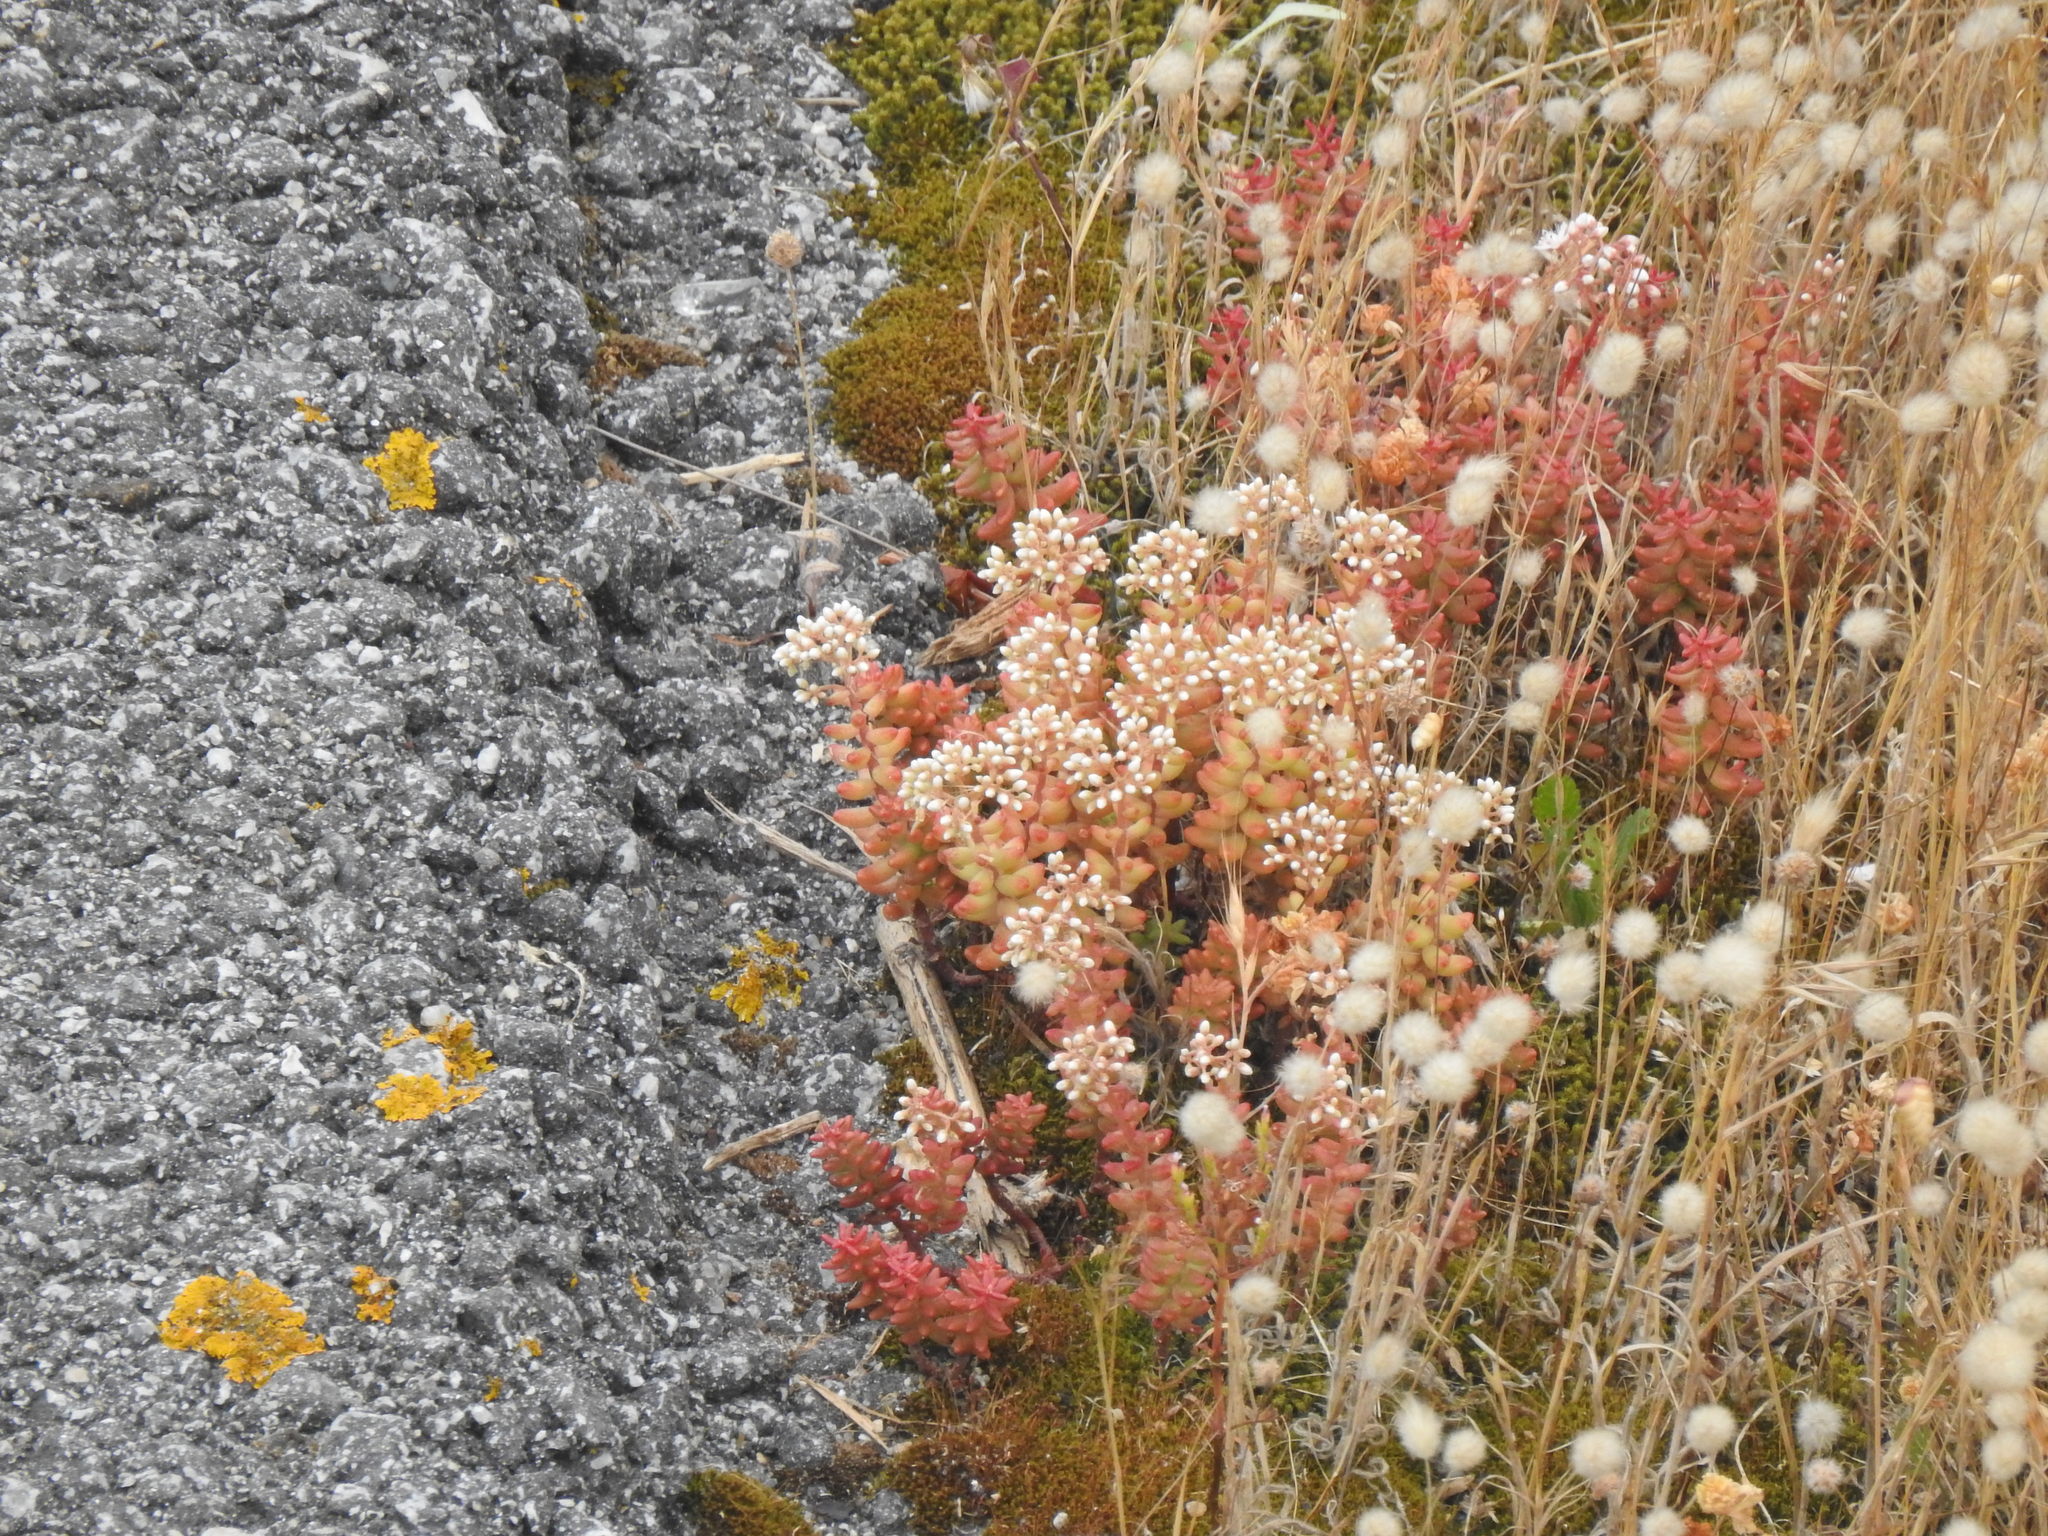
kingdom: Plantae
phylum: Tracheophyta
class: Magnoliopsida
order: Saxifragales
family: Crassulaceae
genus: Sedum
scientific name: Sedum album
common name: White stonecrop
